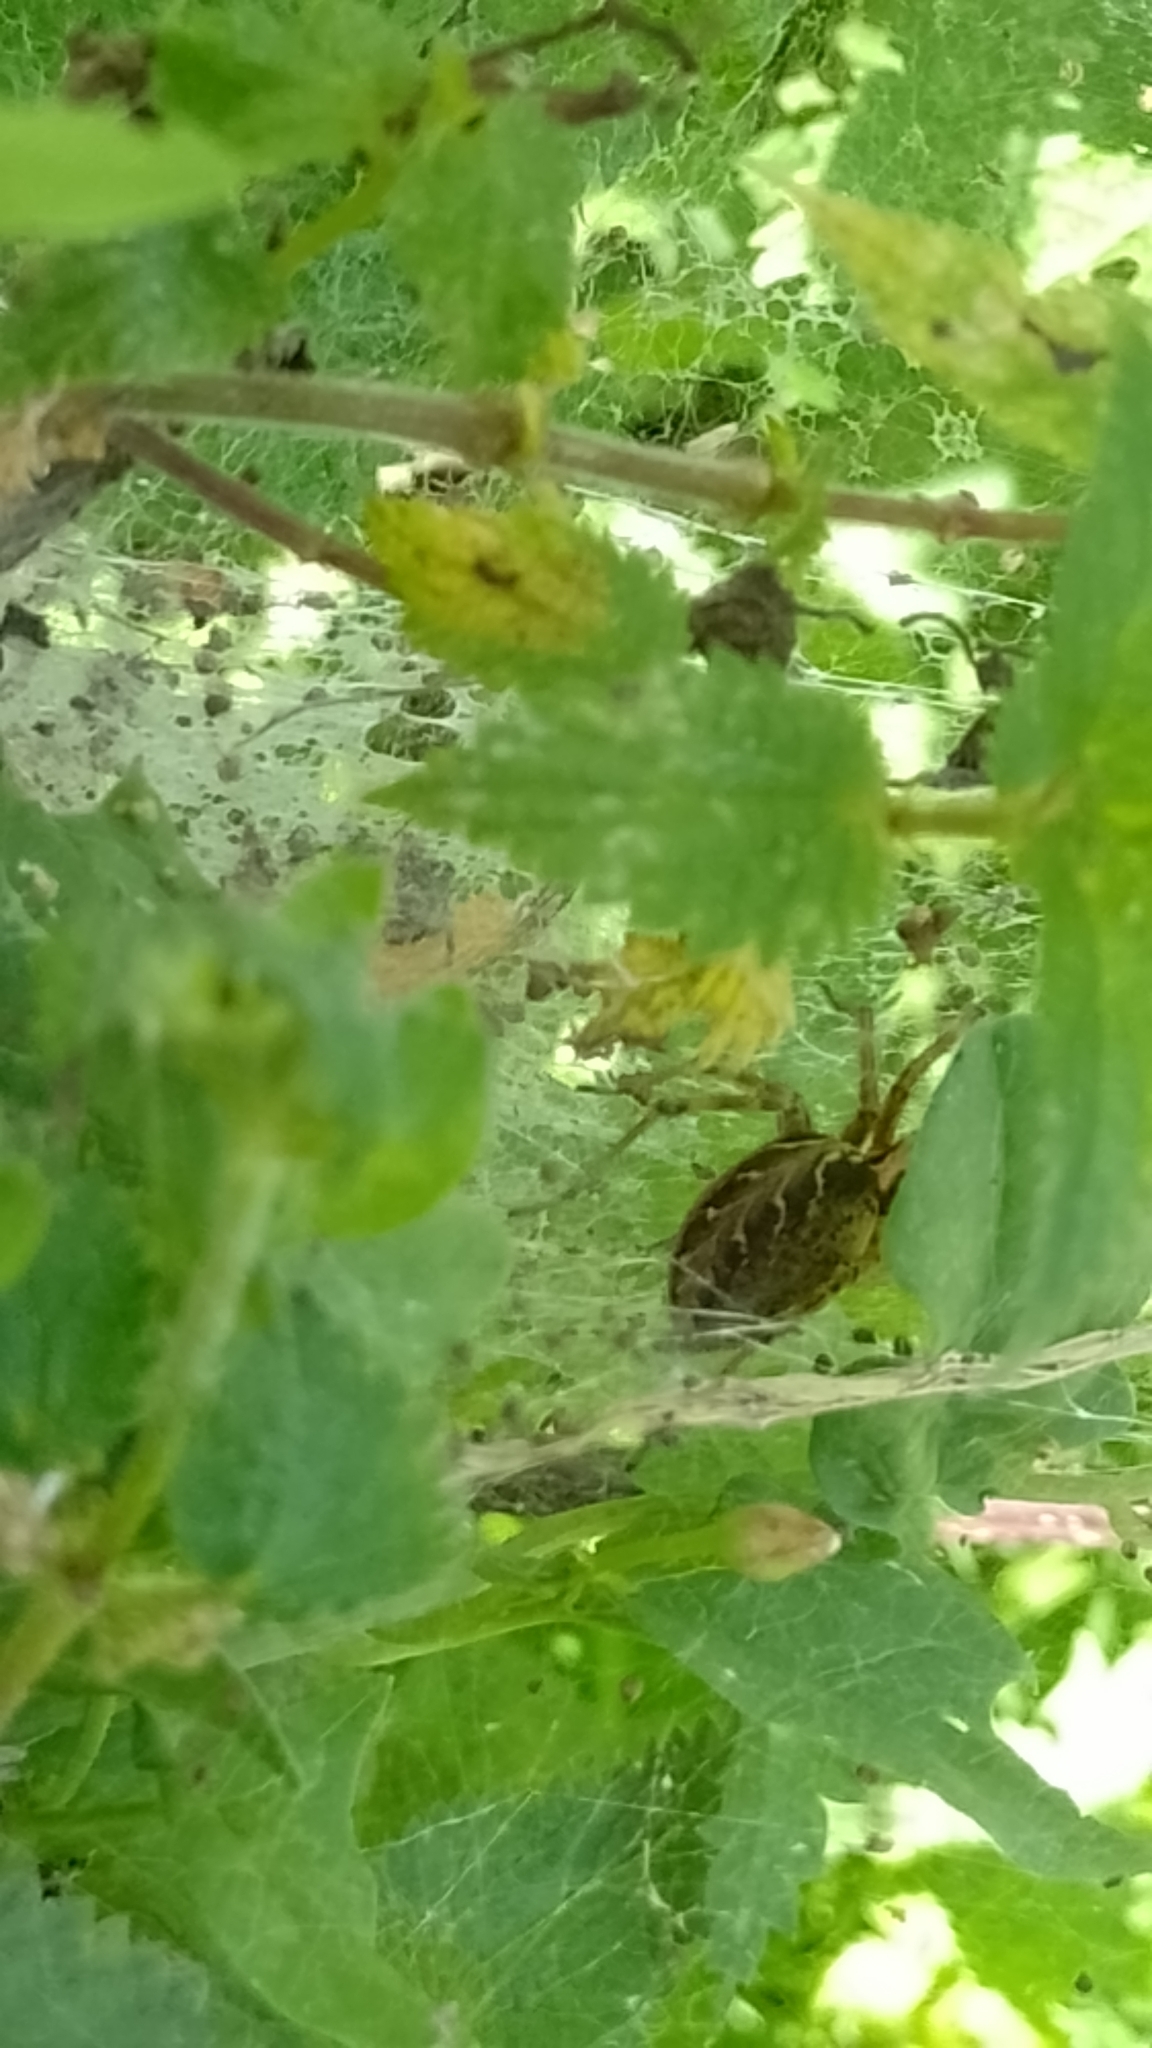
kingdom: Animalia
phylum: Arthropoda
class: Arachnida
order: Araneae
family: Agelenidae
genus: Agelena
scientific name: Agelena labyrinthica
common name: Labyrinth spider
